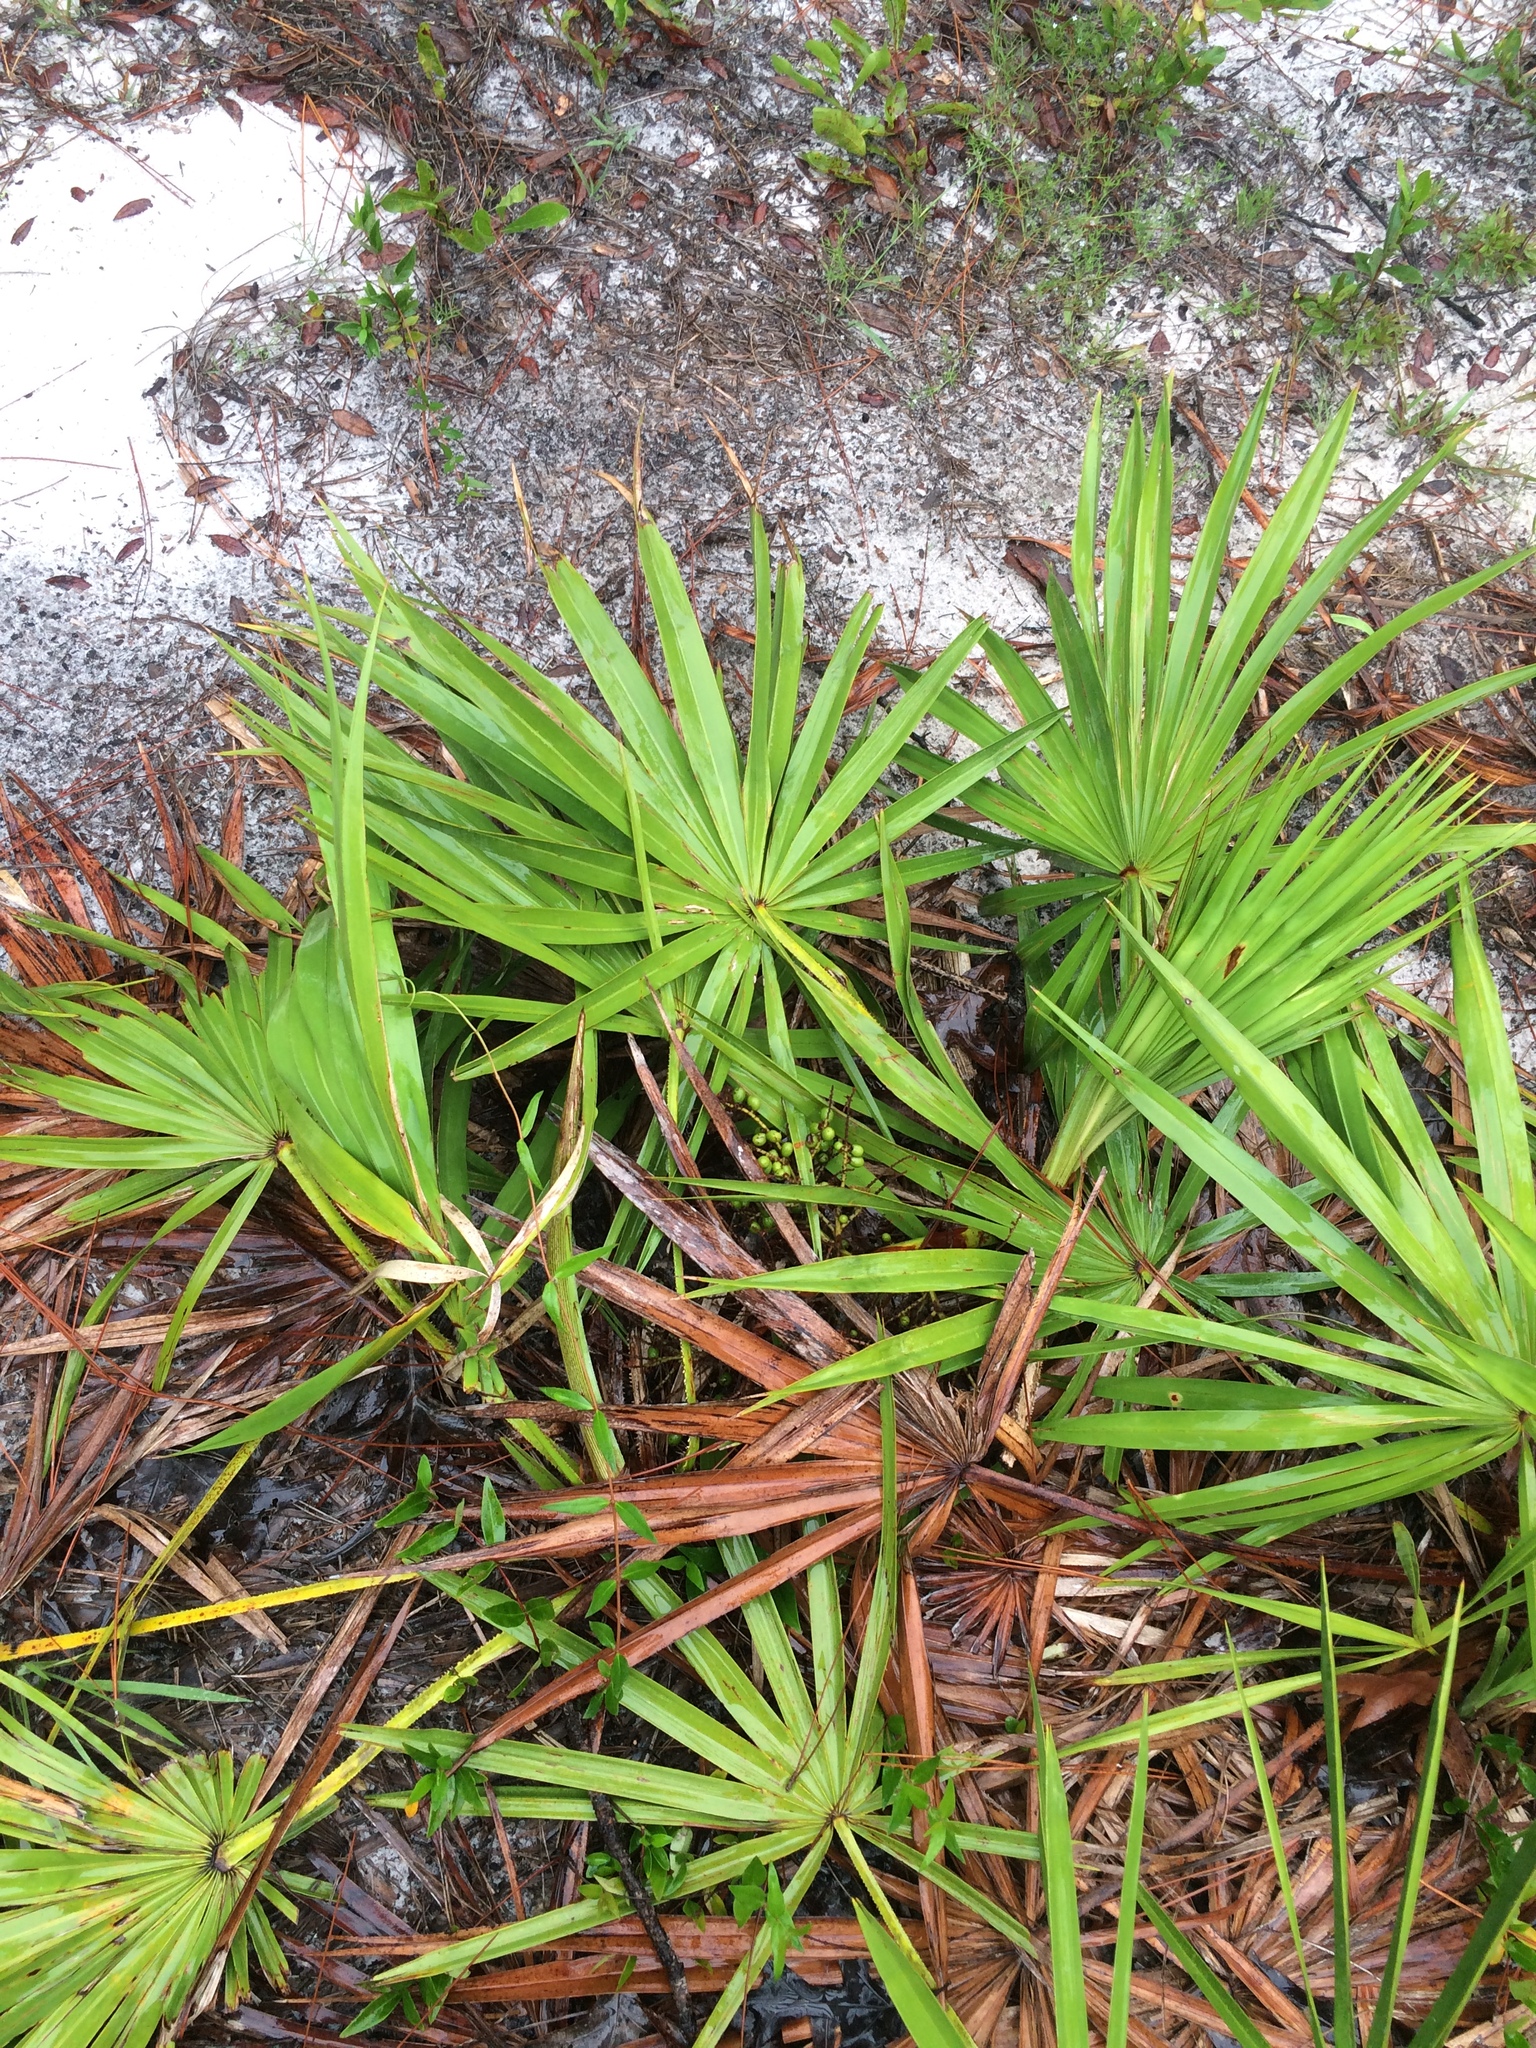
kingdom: Plantae
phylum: Tracheophyta
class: Liliopsida
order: Arecales
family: Arecaceae
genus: Serenoa
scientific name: Serenoa repens
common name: Saw-palmetto
